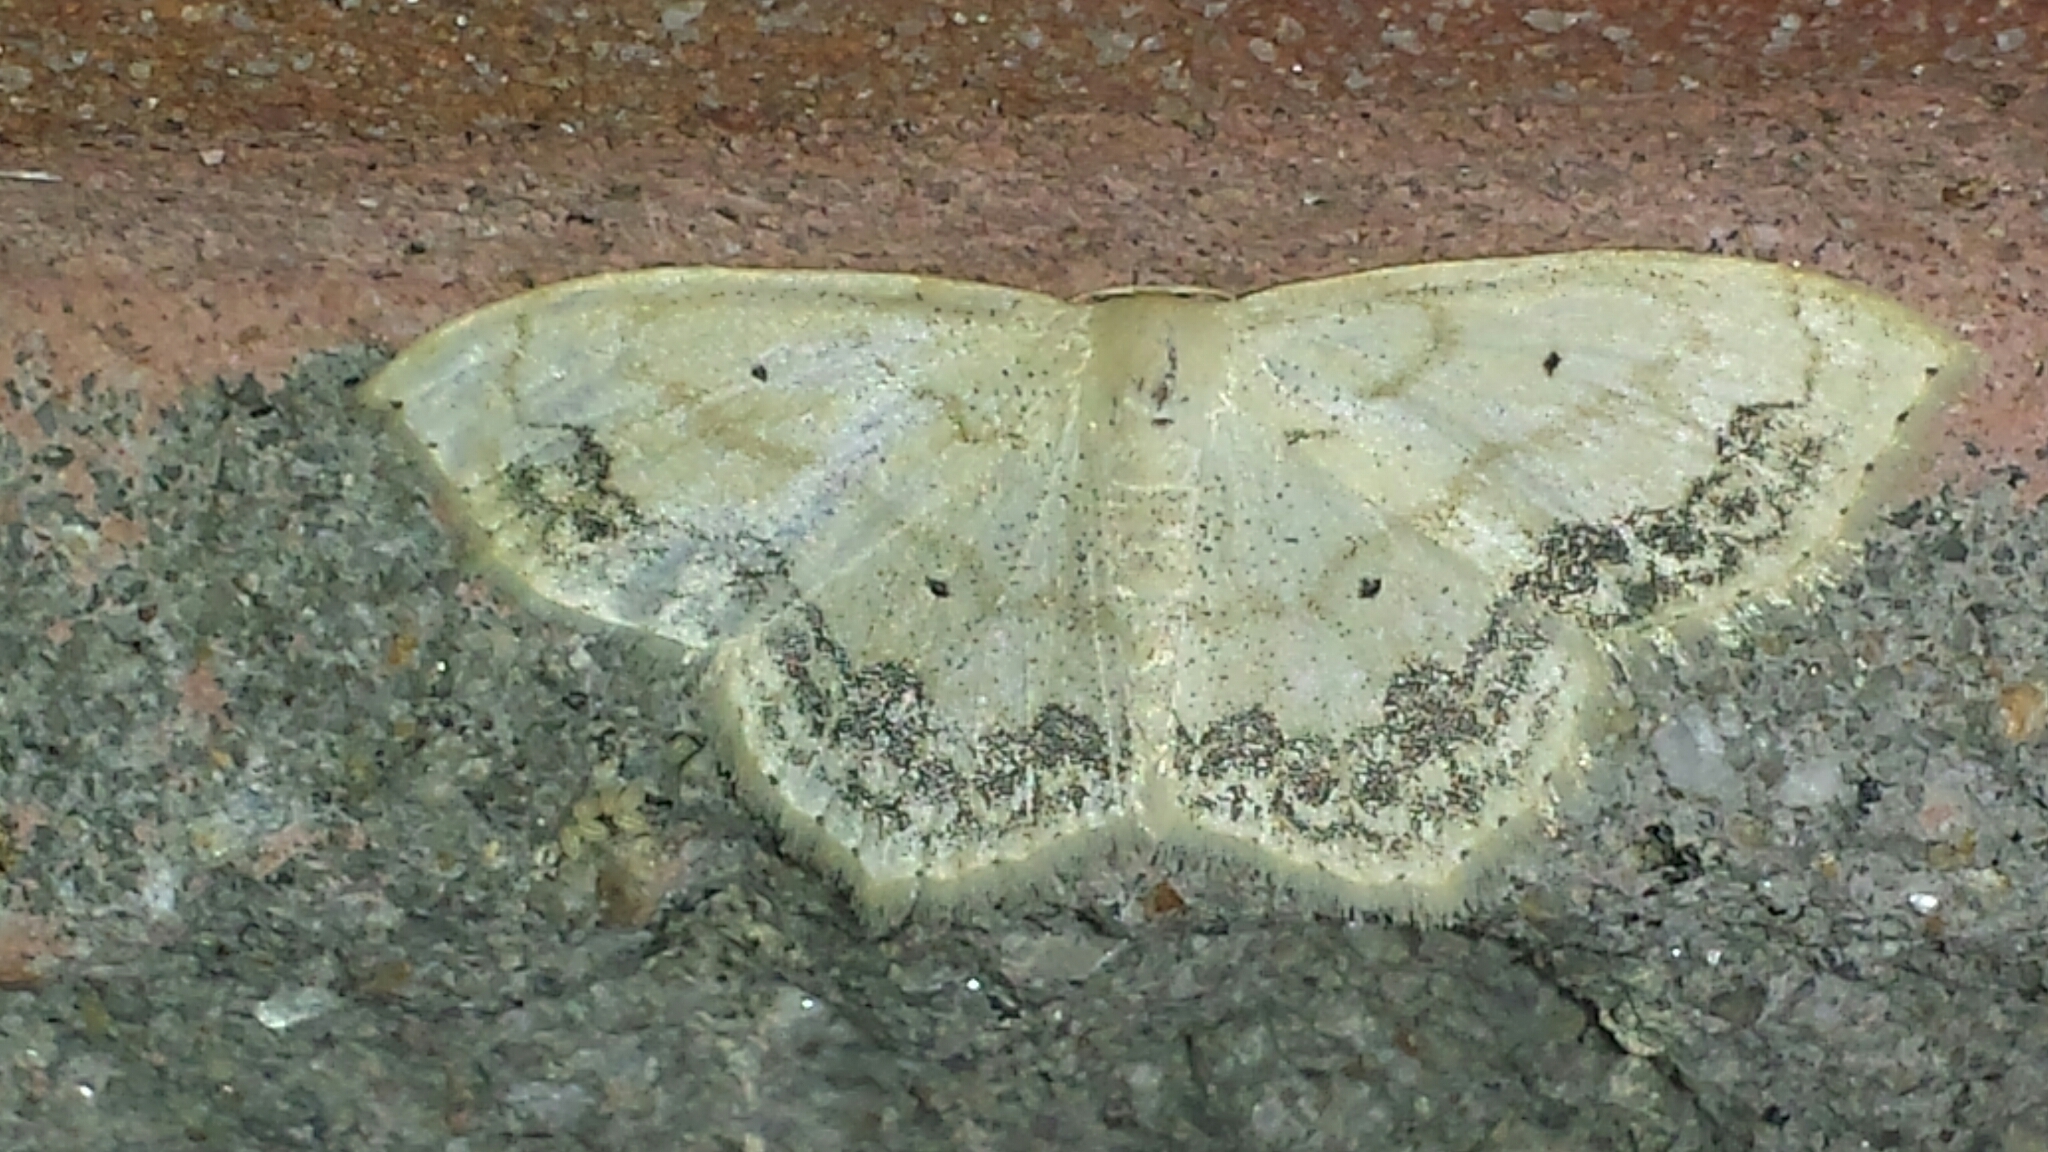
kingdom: Animalia
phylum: Arthropoda
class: Insecta
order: Lepidoptera
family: Geometridae
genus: Scopula
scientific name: Scopula limboundata
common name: Large lace border
